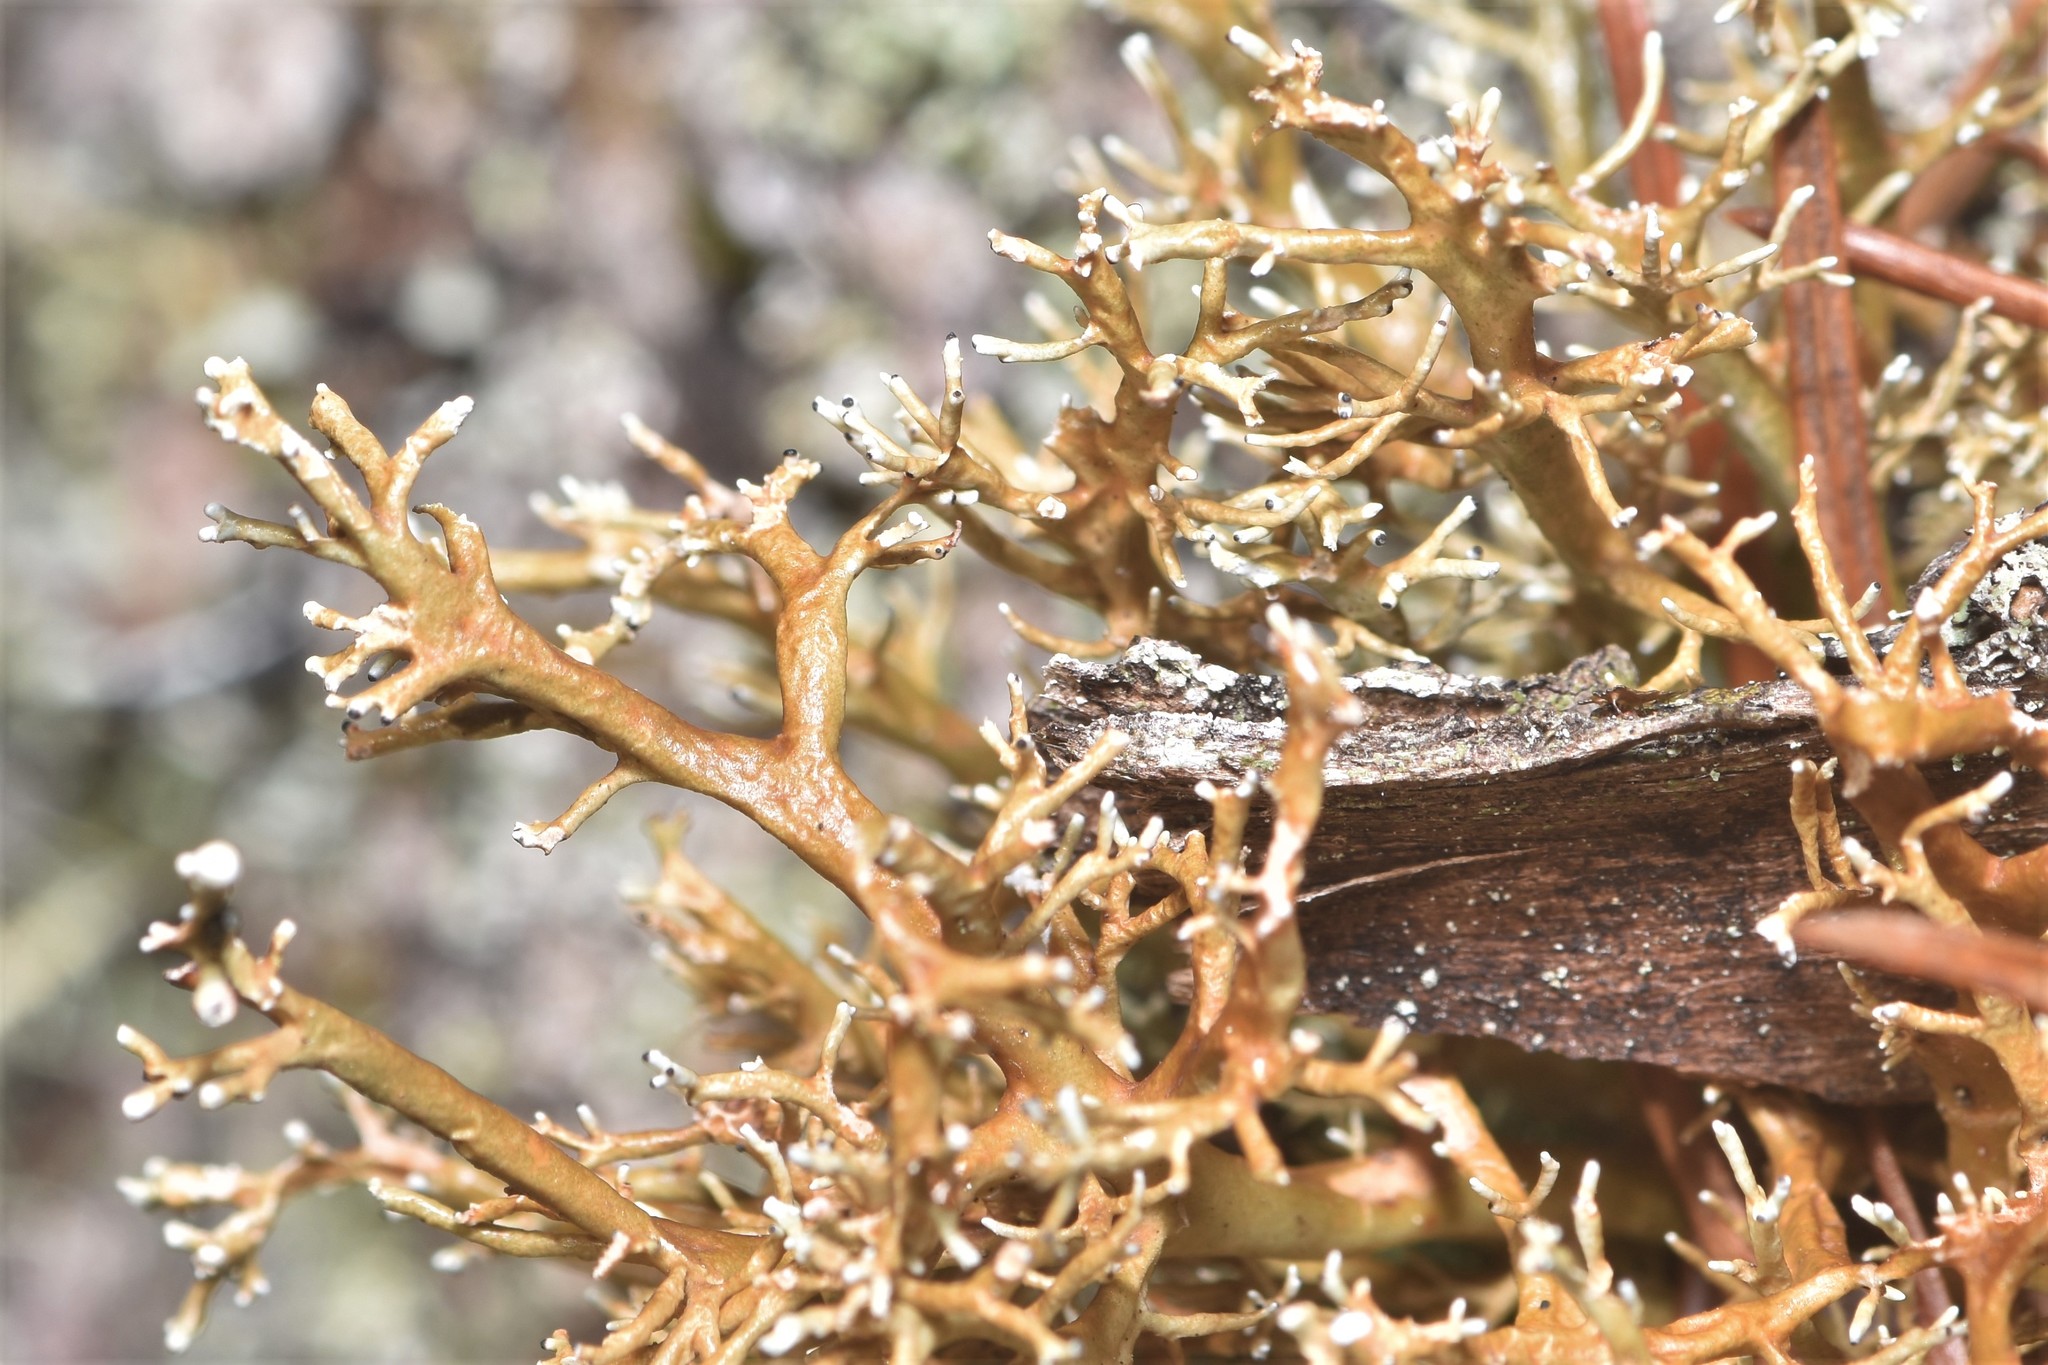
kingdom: Fungi
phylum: Ascomycota
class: Lecanoromycetes
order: Lecanorales
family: Sphaerophoraceae
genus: Sphaerophorus
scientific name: Sphaerophorus venerabilis
